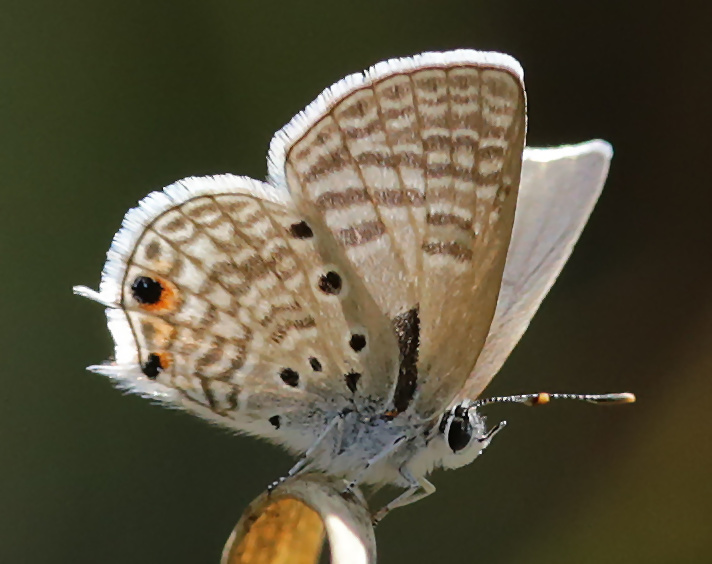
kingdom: Animalia
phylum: Arthropoda
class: Insecta
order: Lepidoptera
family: Lycaenidae
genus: Anthene
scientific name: Anthene amarah
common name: Black-striped hairtail
